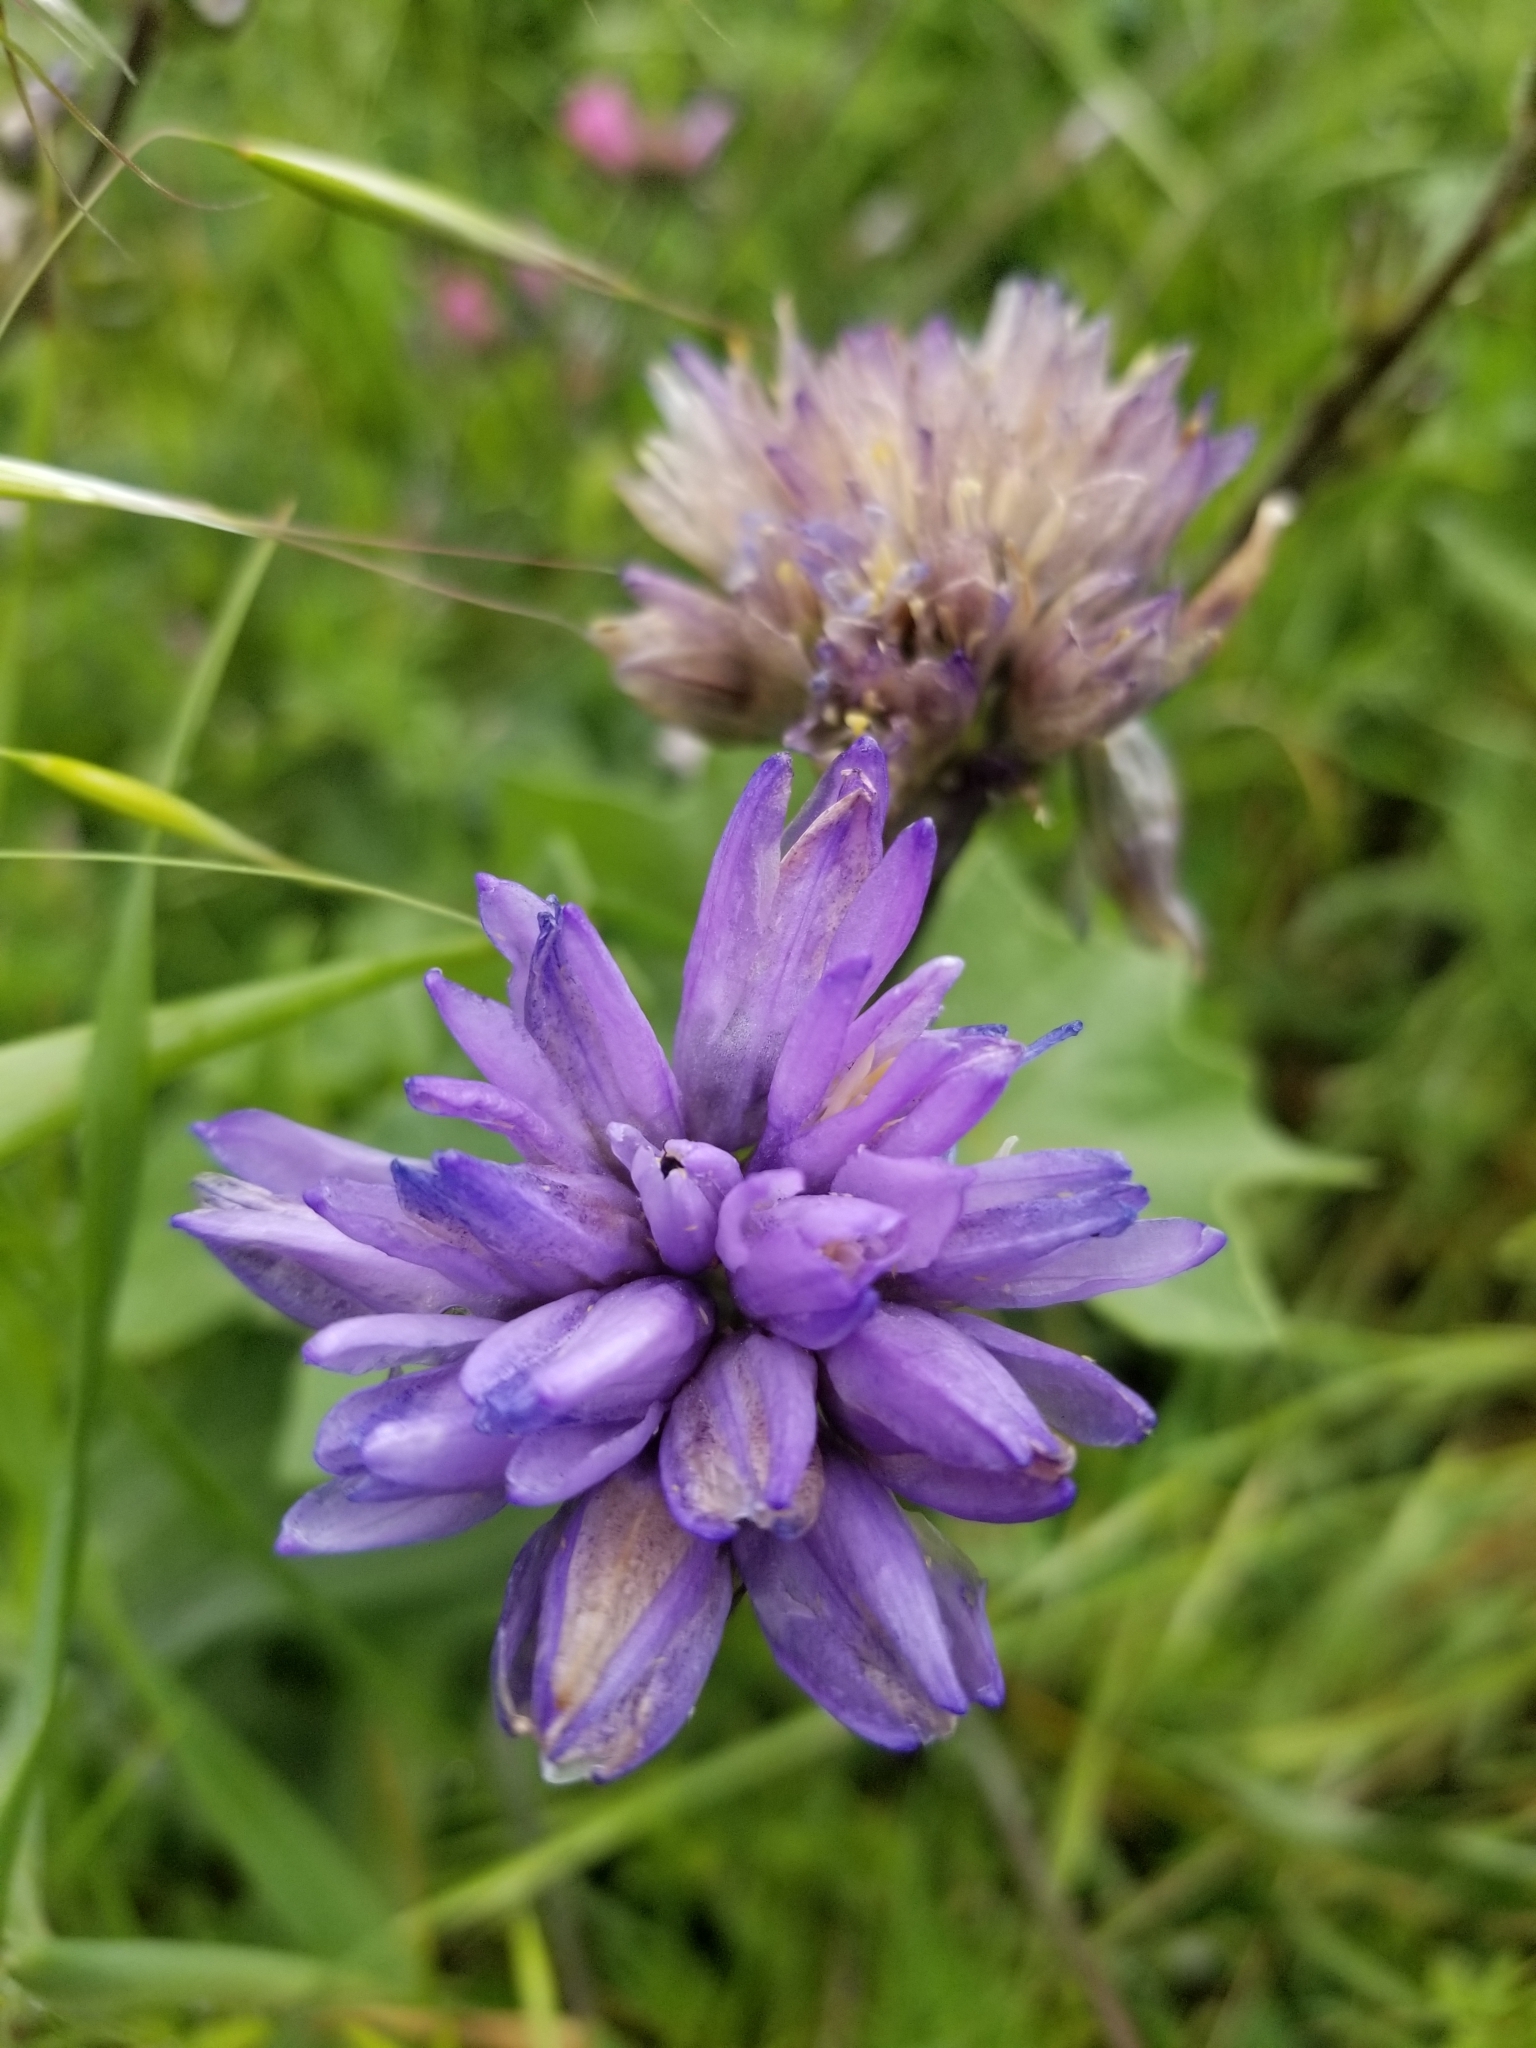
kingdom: Plantae
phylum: Tracheophyta
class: Liliopsida
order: Asparagales
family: Asparagaceae
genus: Dipterostemon
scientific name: Dipterostemon capitatus
